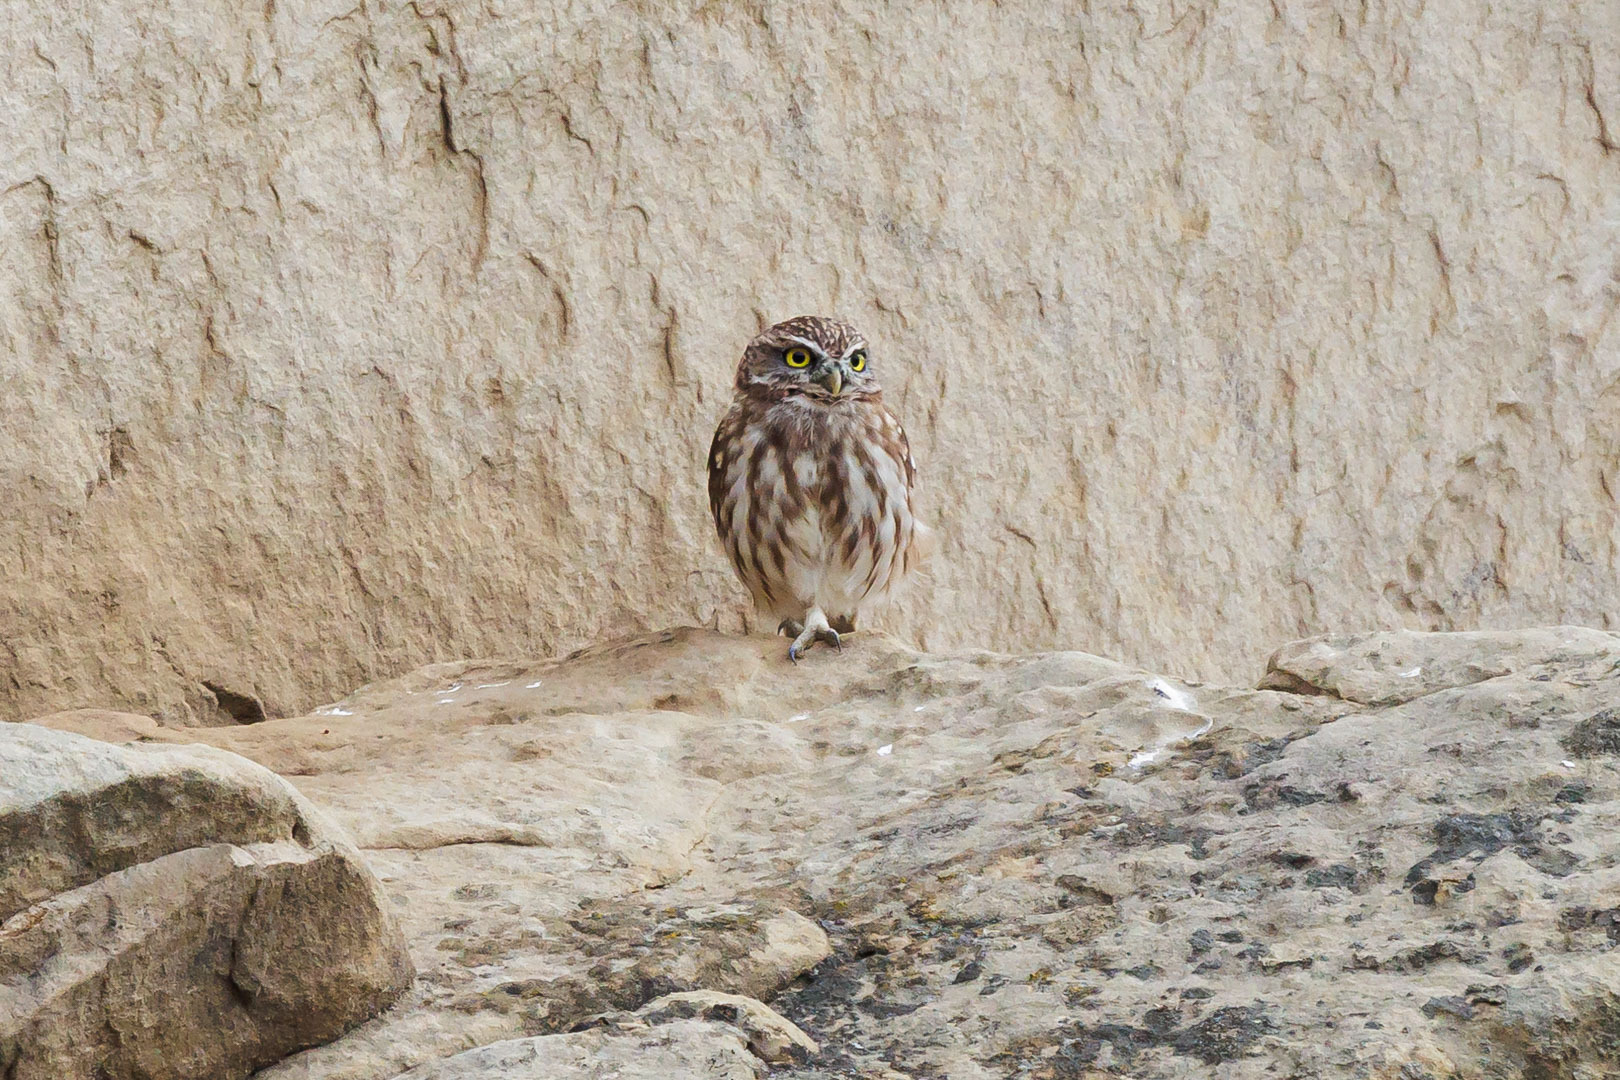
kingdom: Animalia
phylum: Chordata
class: Aves
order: Strigiformes
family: Strigidae
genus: Athene
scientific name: Athene noctua
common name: Little owl
